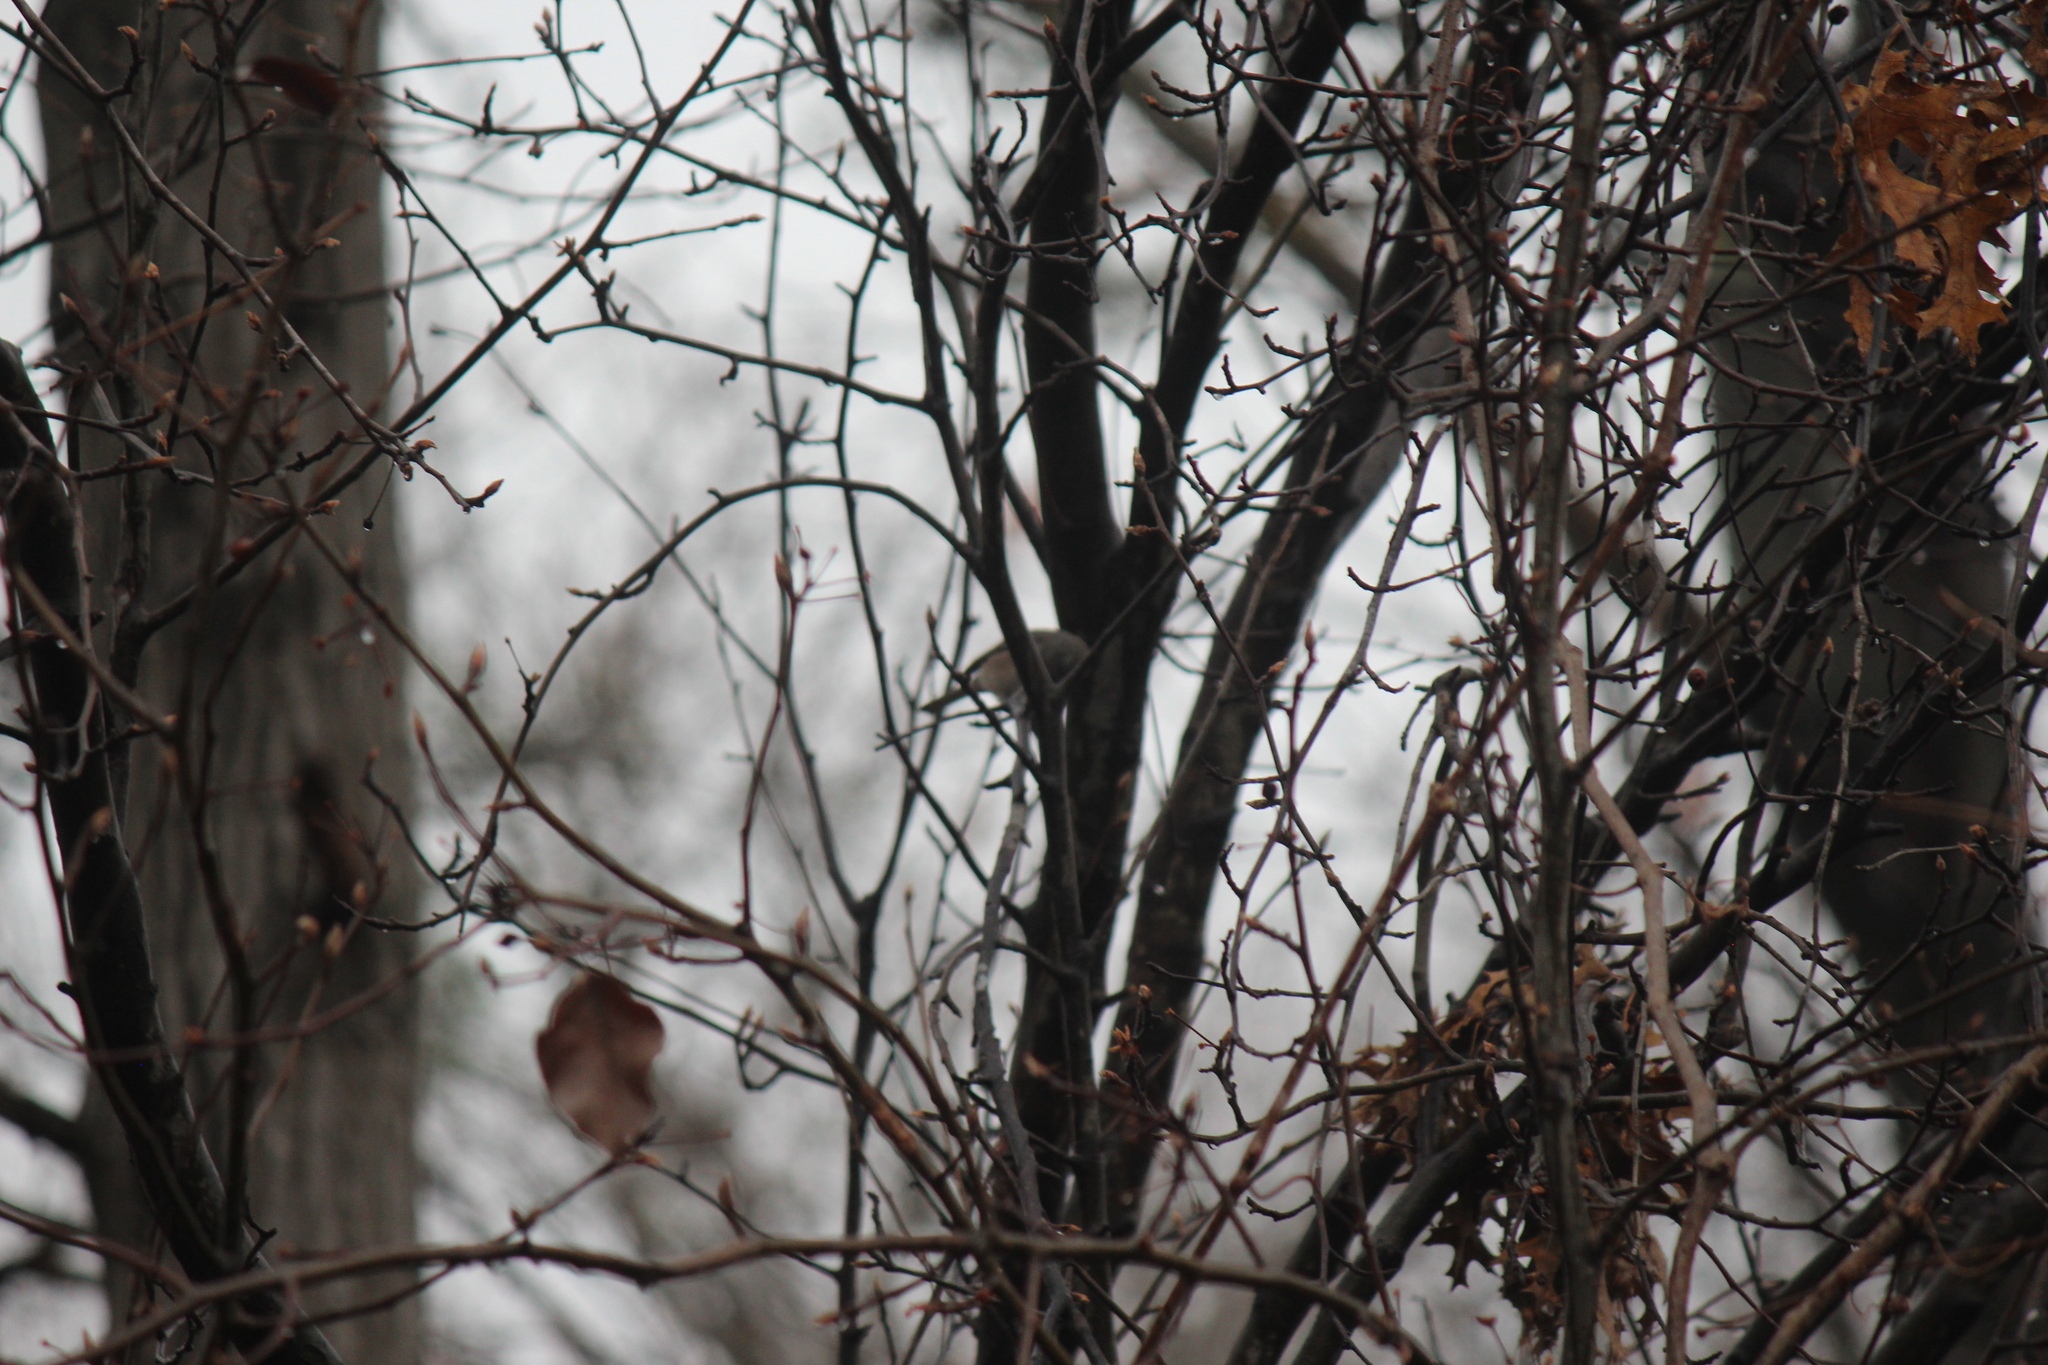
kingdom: Animalia
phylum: Chordata
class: Aves
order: Passeriformes
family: Paridae
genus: Baeolophus
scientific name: Baeolophus bicolor
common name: Tufted titmouse
